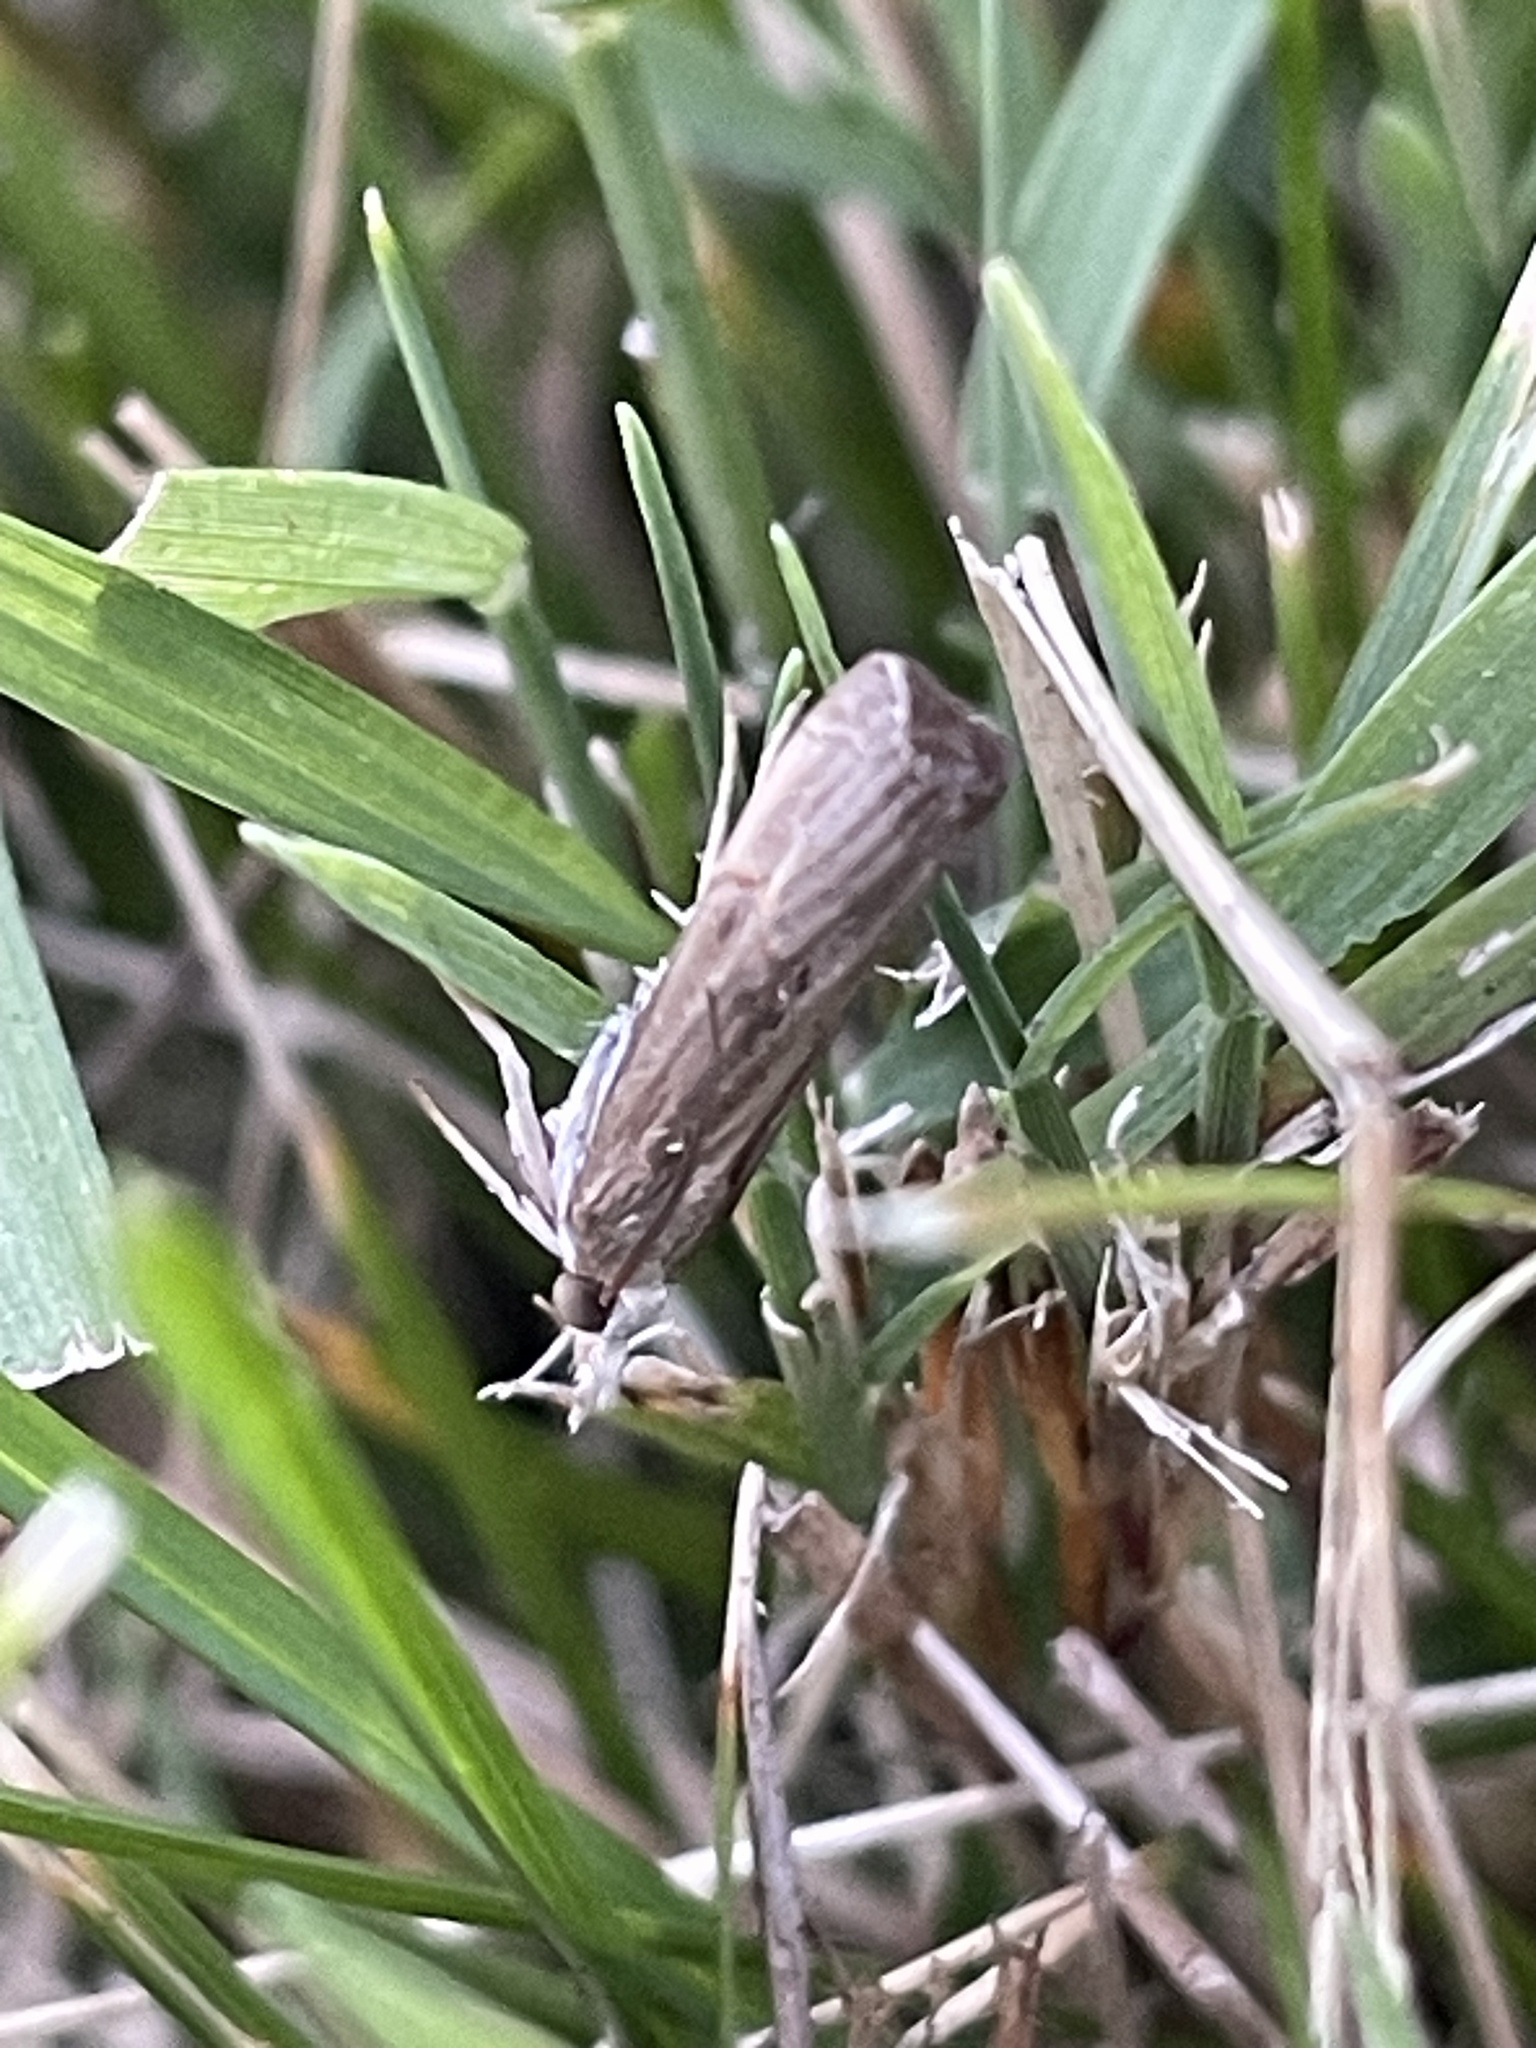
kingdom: Animalia
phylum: Arthropoda
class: Insecta
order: Lepidoptera
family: Crambidae
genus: Parapediasia
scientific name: Parapediasia teterellus
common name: Bluegrass webworm moth
